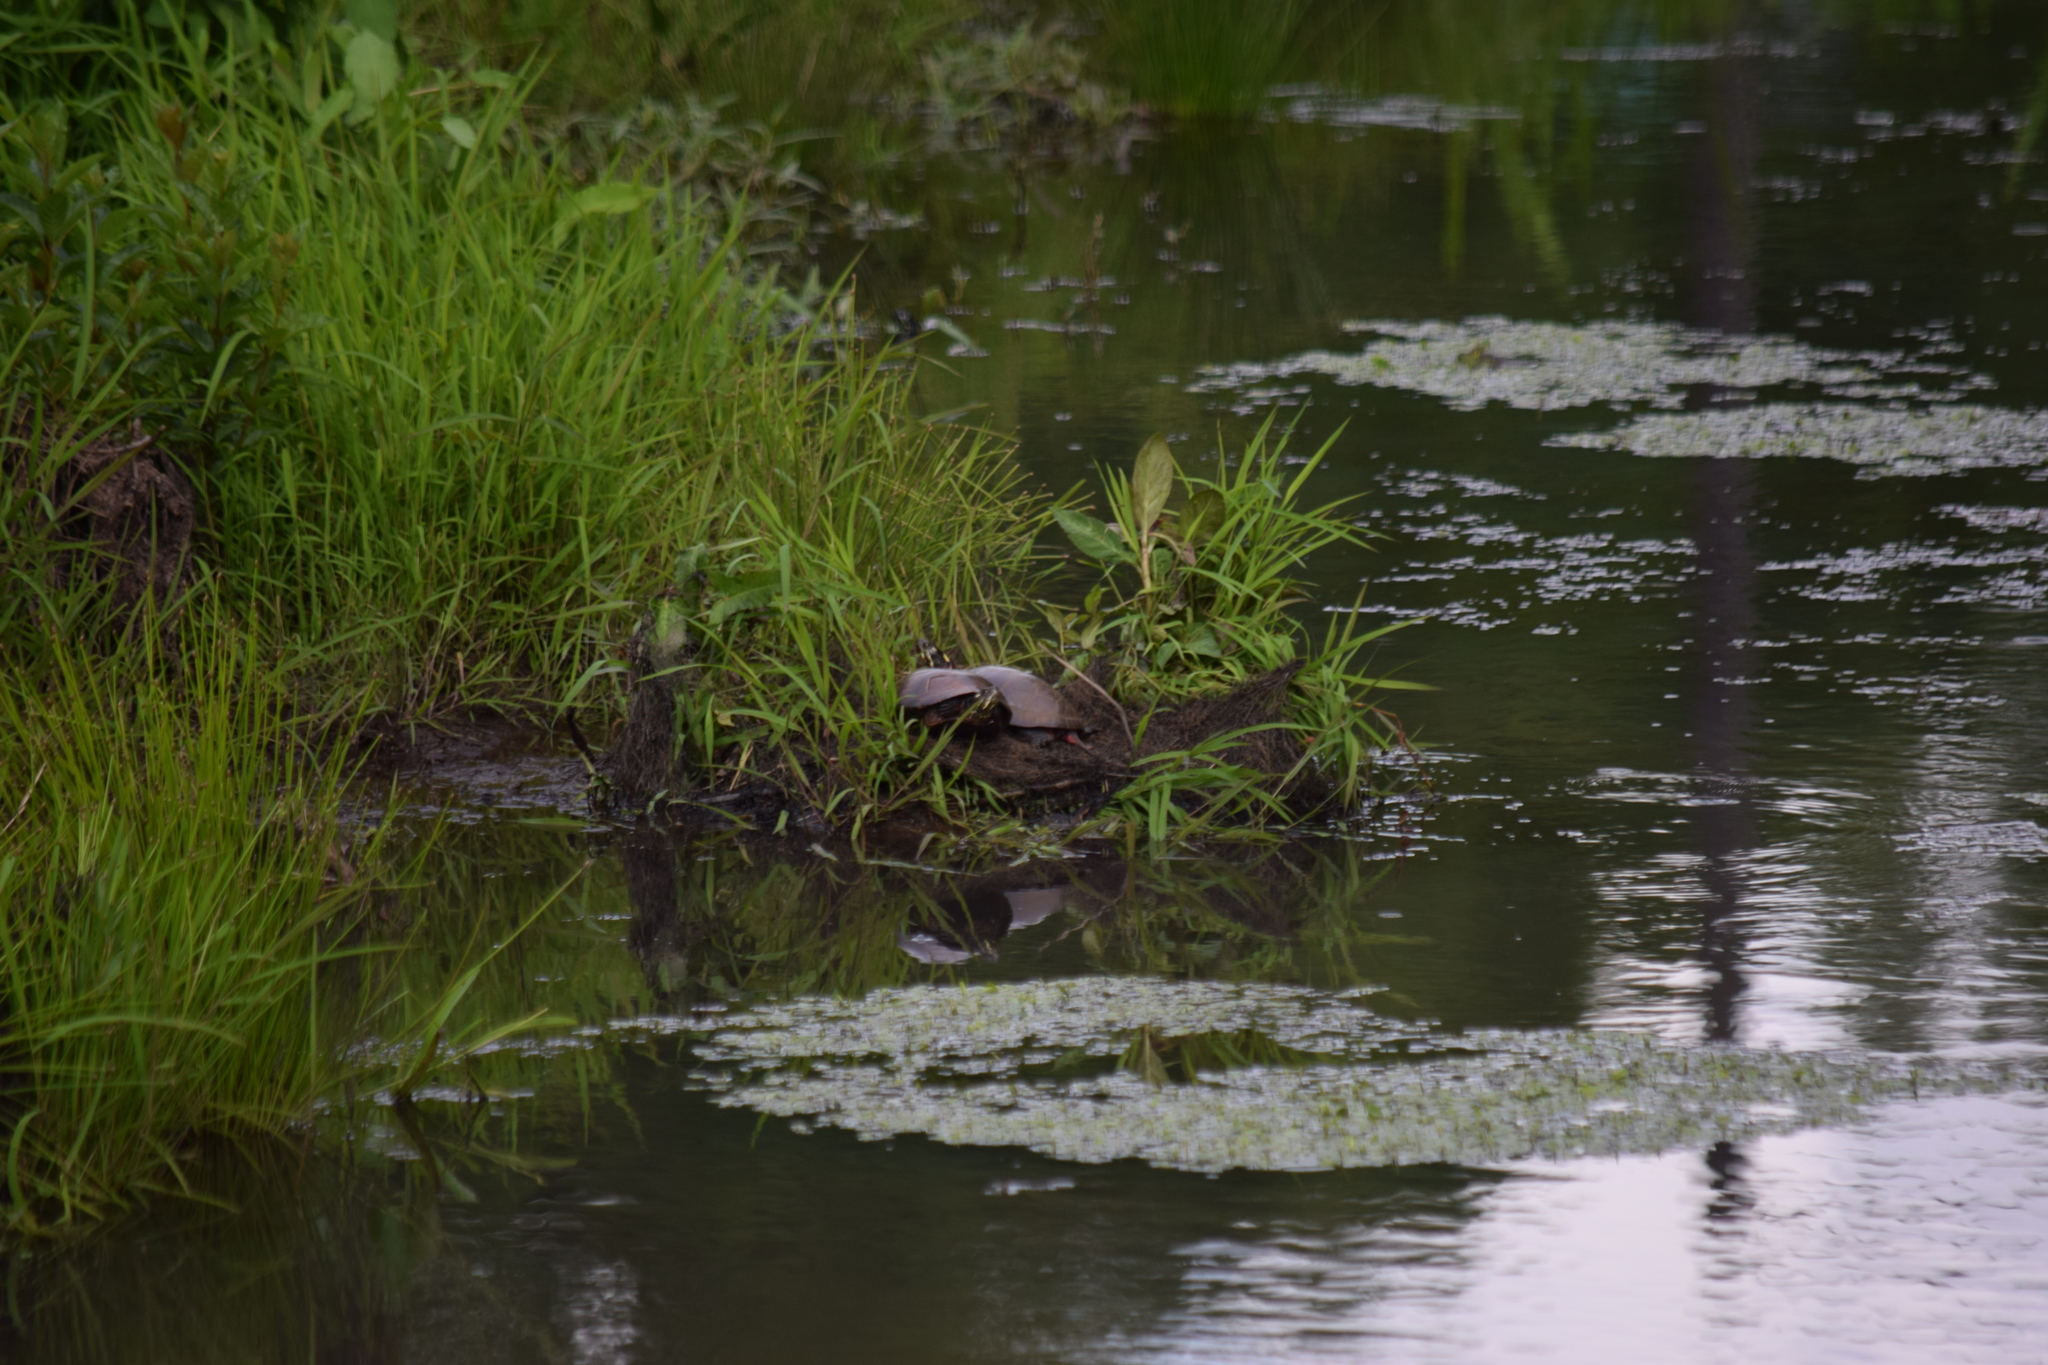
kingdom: Animalia
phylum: Chordata
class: Testudines
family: Emydidae
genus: Chrysemys
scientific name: Chrysemys picta
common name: Painted turtle
